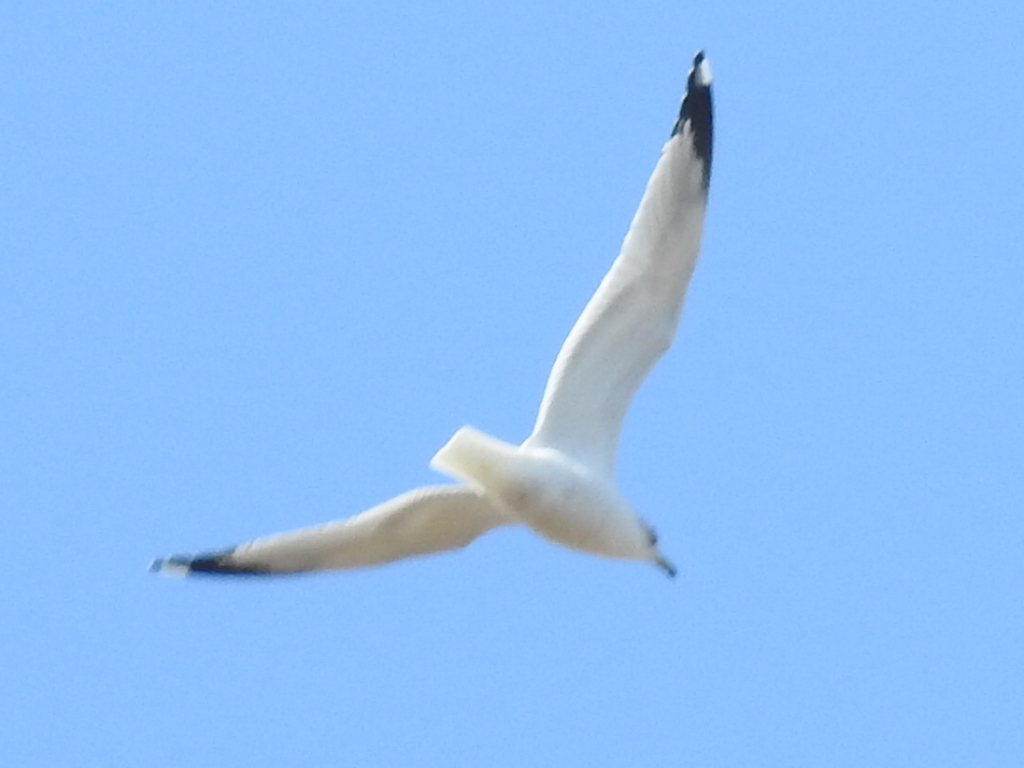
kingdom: Animalia
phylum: Chordata
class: Aves
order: Charadriiformes
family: Laridae
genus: Larus
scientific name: Larus delawarensis
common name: Ring-billed gull
